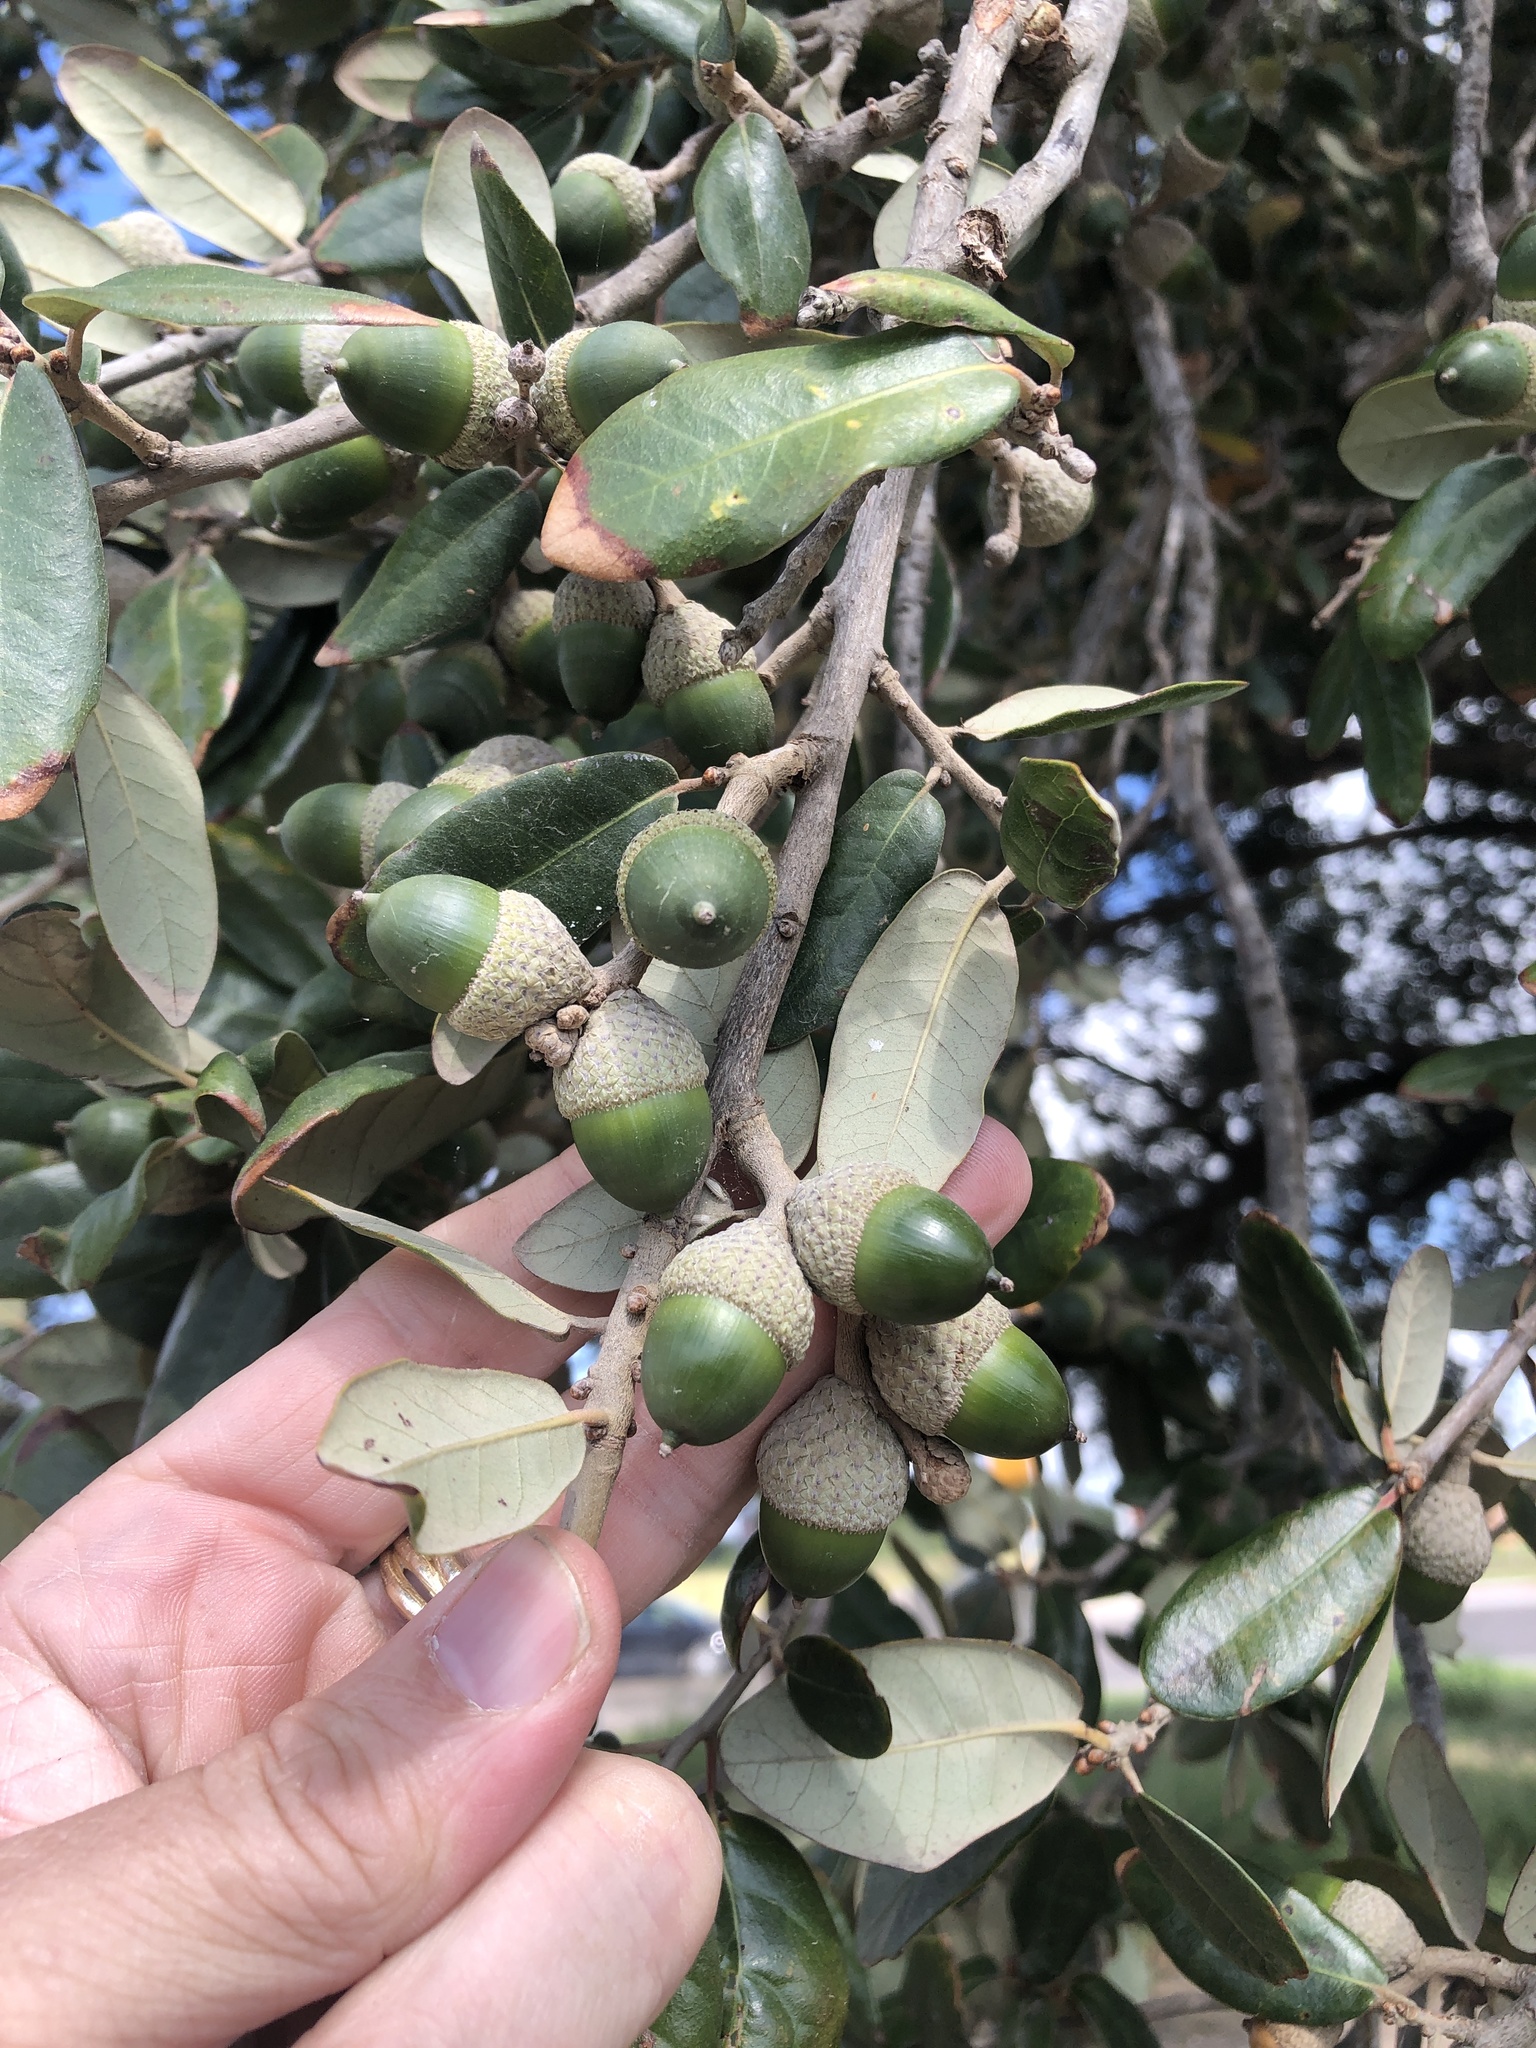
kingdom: Plantae
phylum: Tracheophyta
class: Magnoliopsida
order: Fagales
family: Fagaceae
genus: Quercus
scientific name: Quercus virginiana
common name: Southern live oak
